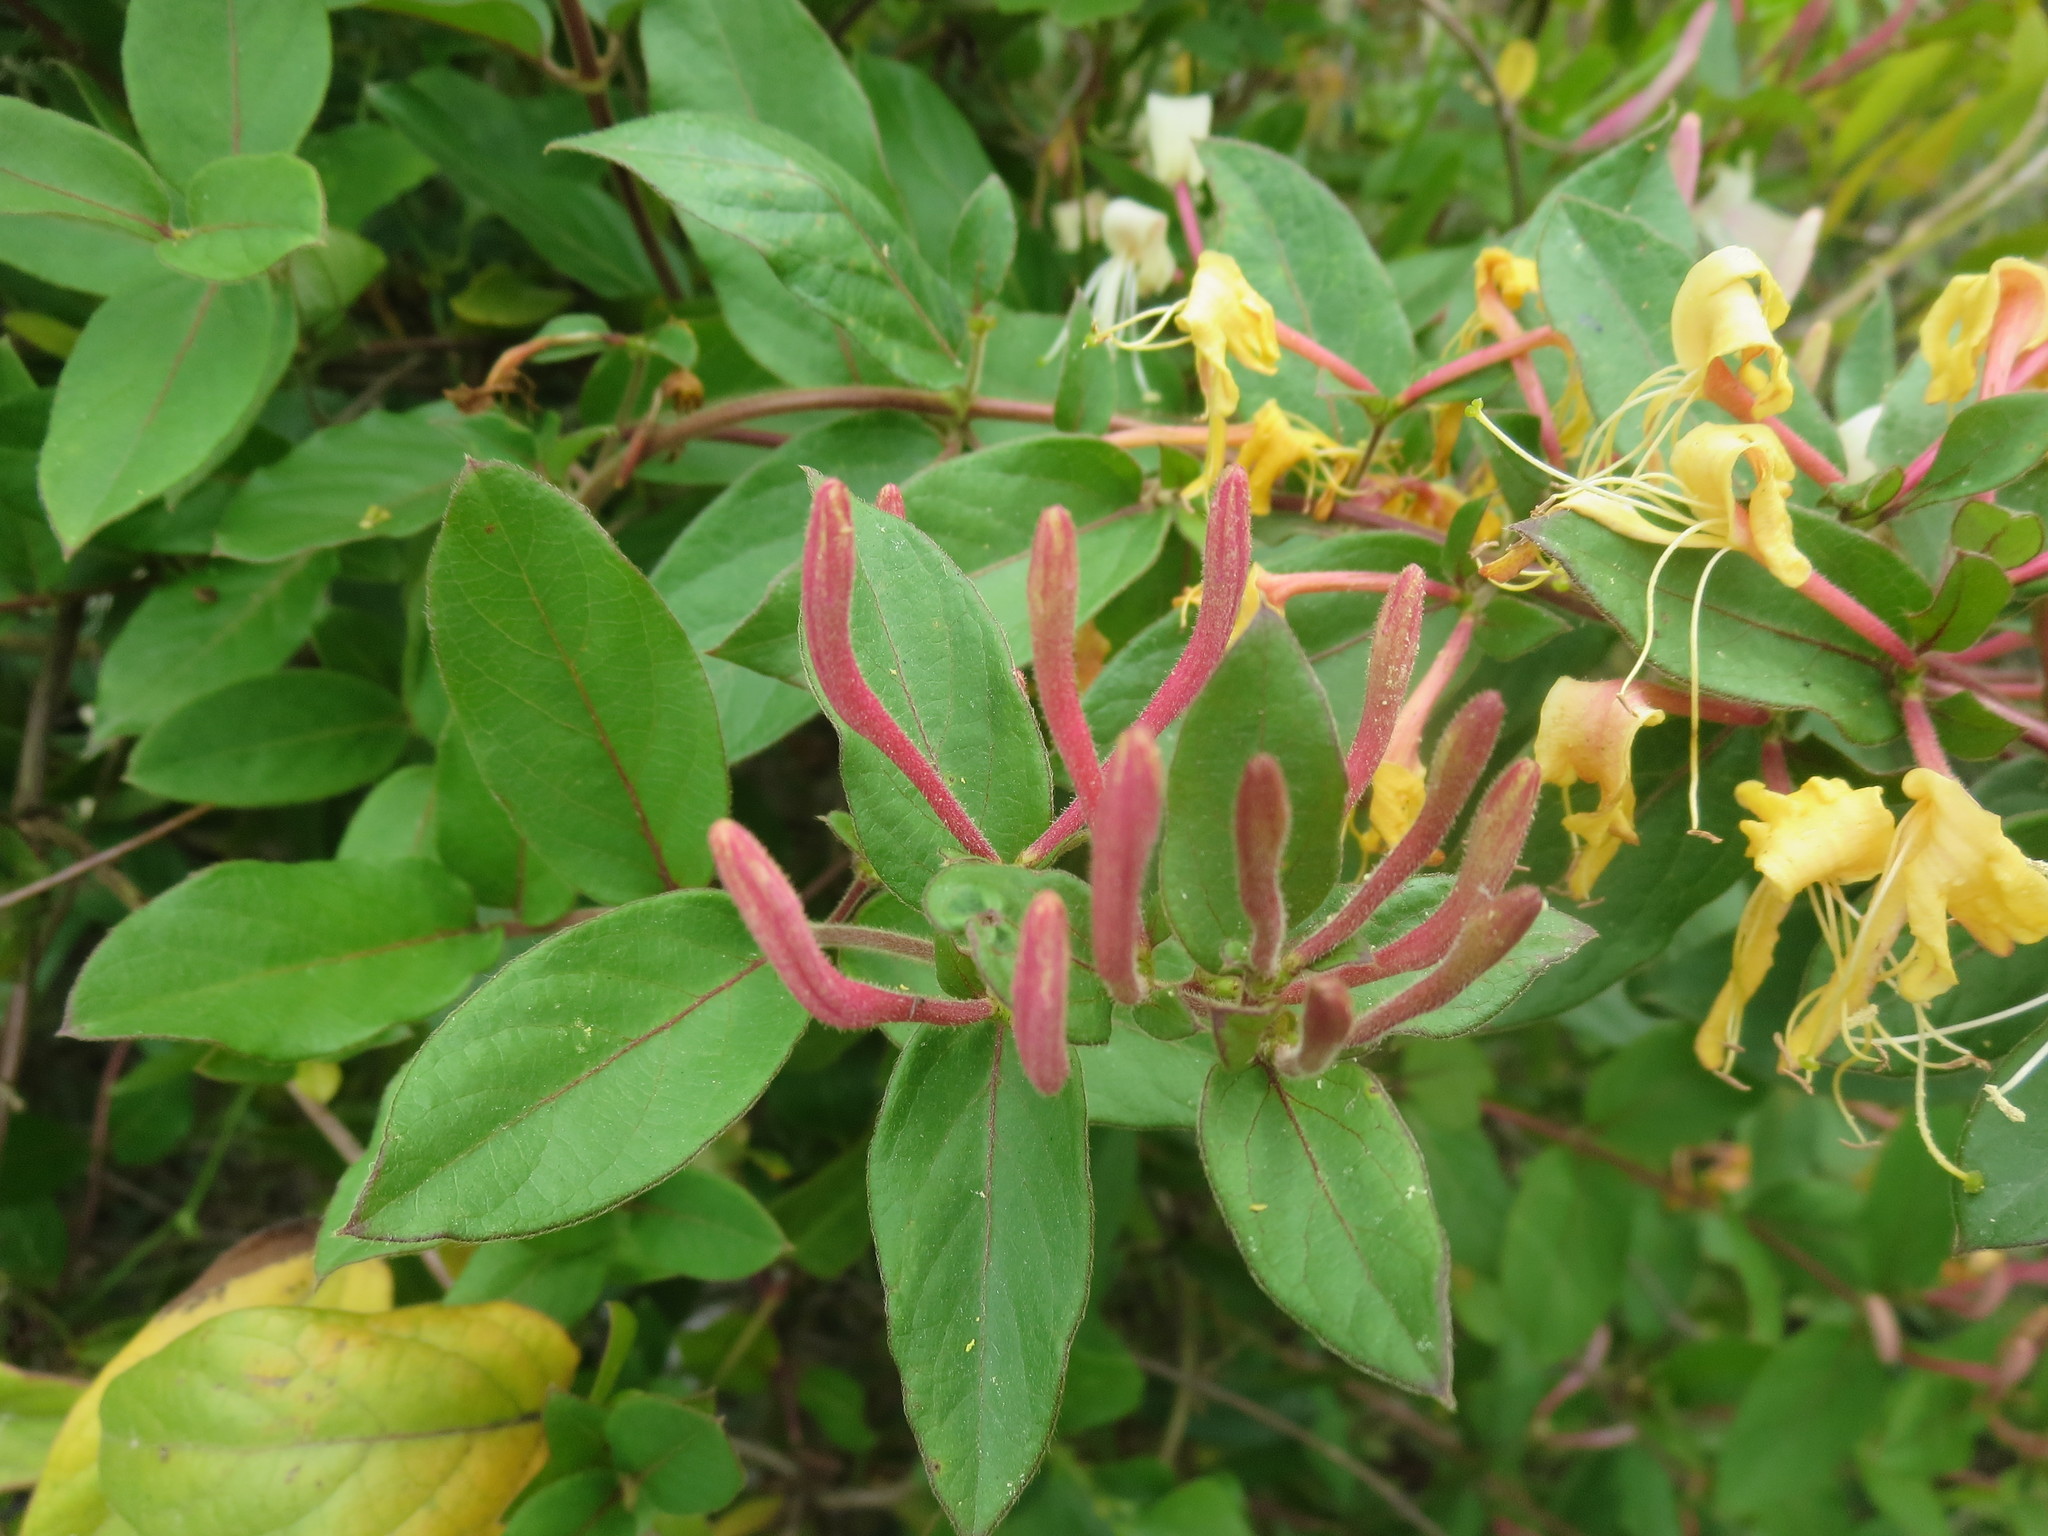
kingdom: Plantae
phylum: Tracheophyta
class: Magnoliopsida
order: Dipsacales
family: Caprifoliaceae
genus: Lonicera
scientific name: Lonicera japonica
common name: Japanese honeysuckle
